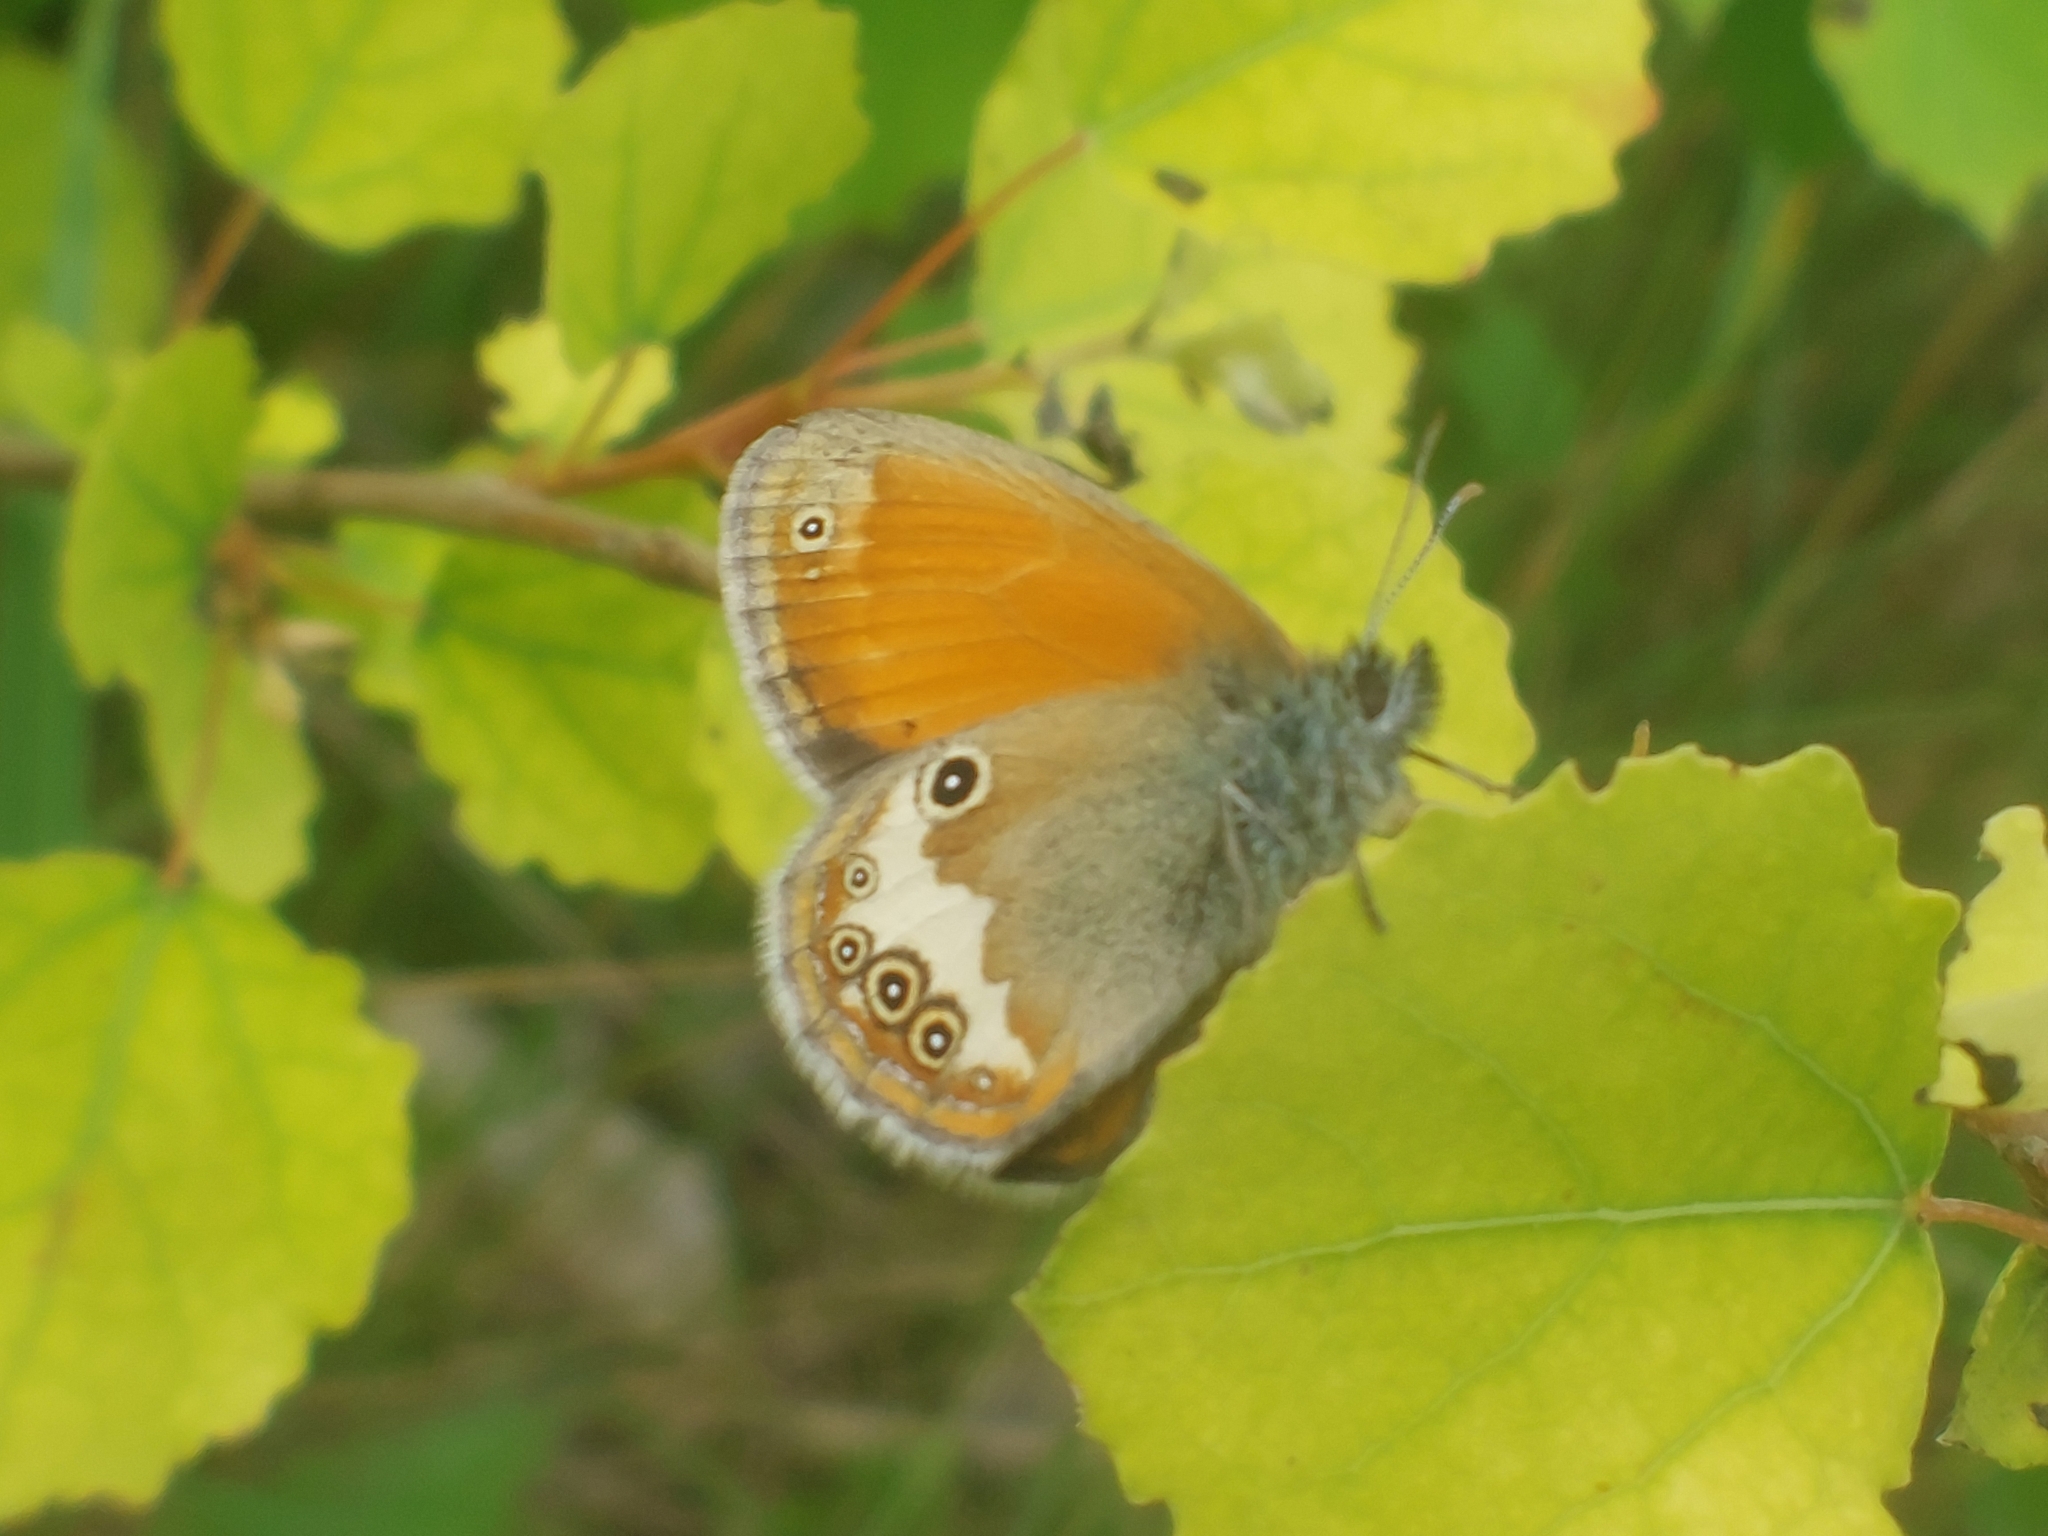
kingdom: Animalia
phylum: Arthropoda
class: Insecta
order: Lepidoptera
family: Nymphalidae
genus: Coenonympha
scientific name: Coenonympha arcania
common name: Pearly heath
